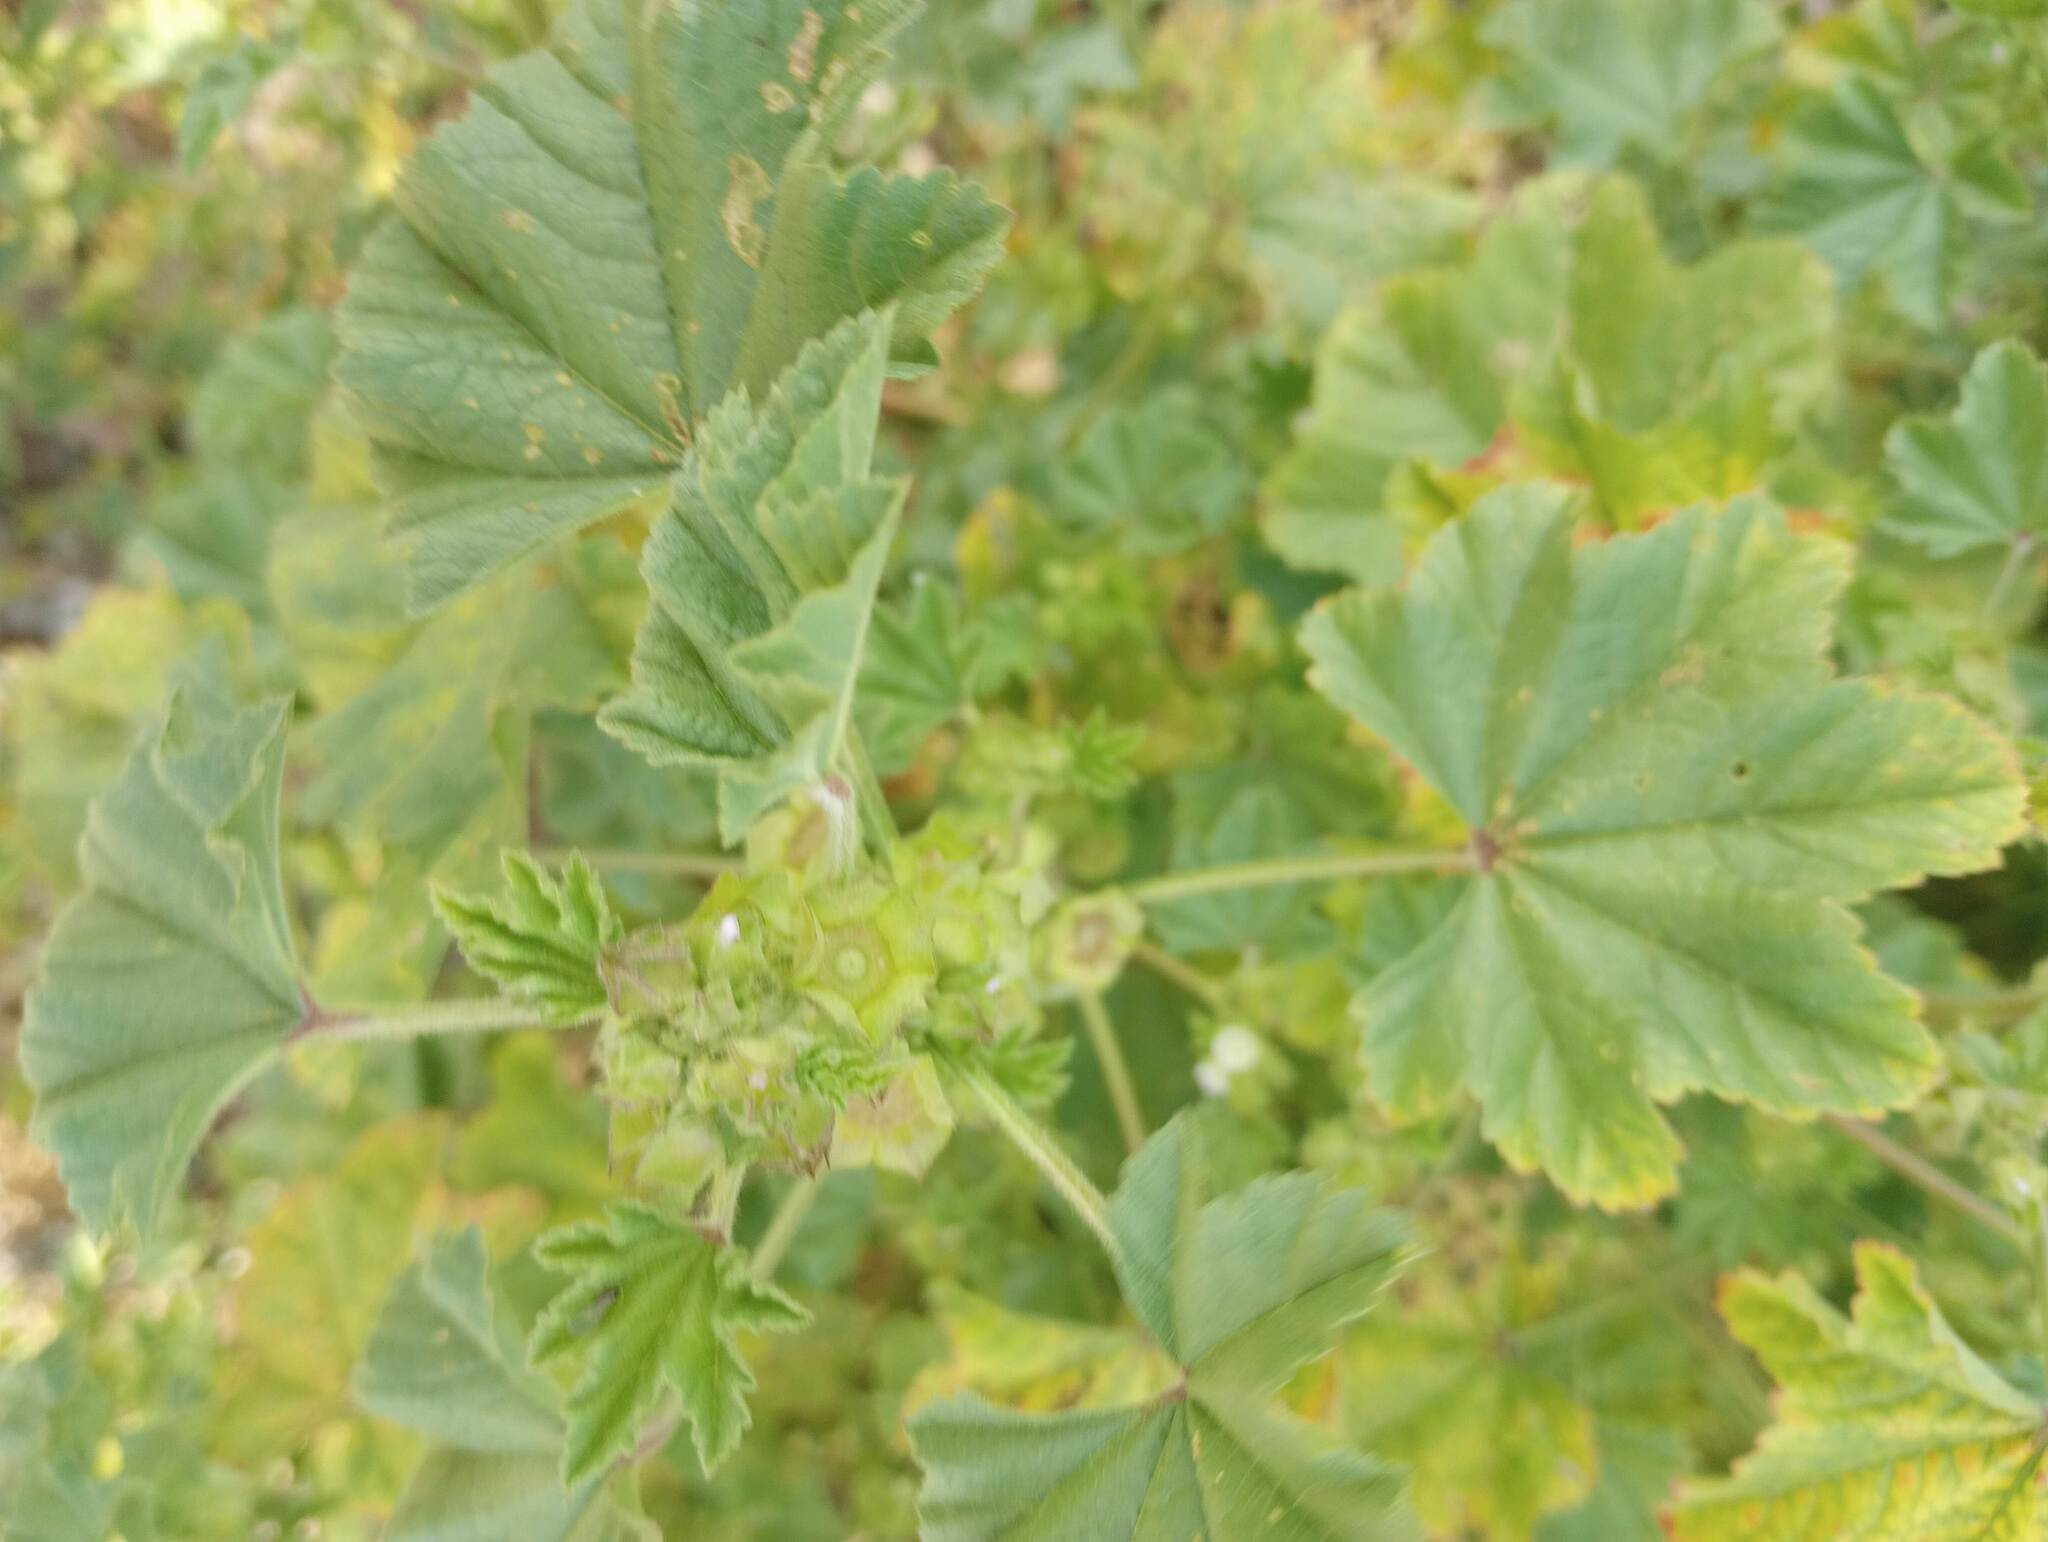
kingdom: Plantae
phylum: Tracheophyta
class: Magnoliopsida
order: Malvales
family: Malvaceae
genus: Malva
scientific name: Malva parviflora
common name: Least mallow
